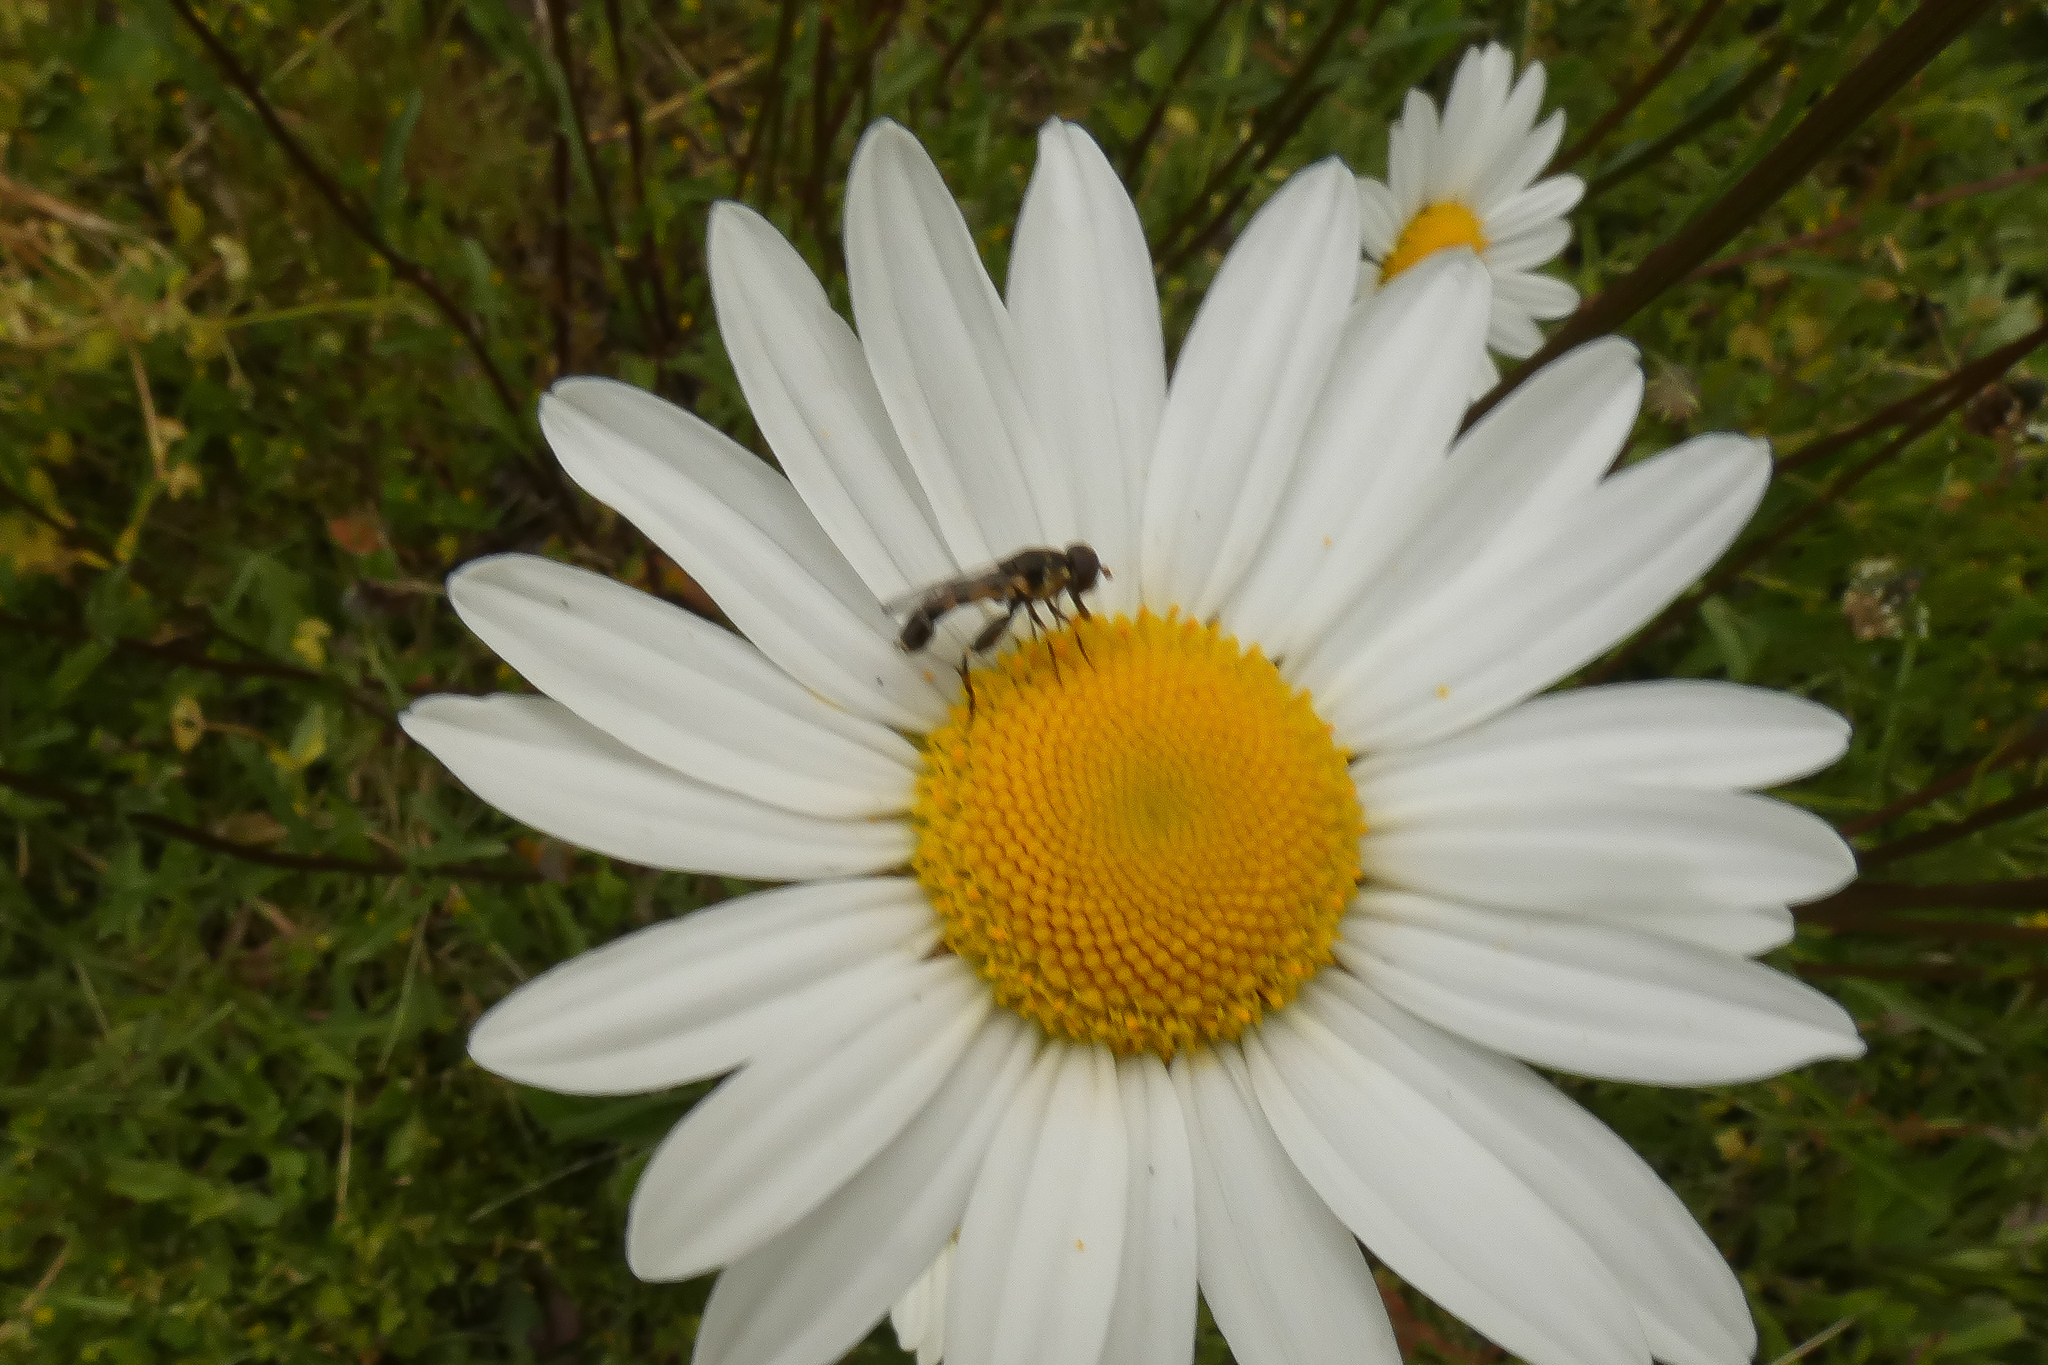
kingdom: Animalia
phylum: Arthropoda
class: Insecta
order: Diptera
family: Syrphidae
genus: Syritta
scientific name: Syritta pipiens
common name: Hover fly
